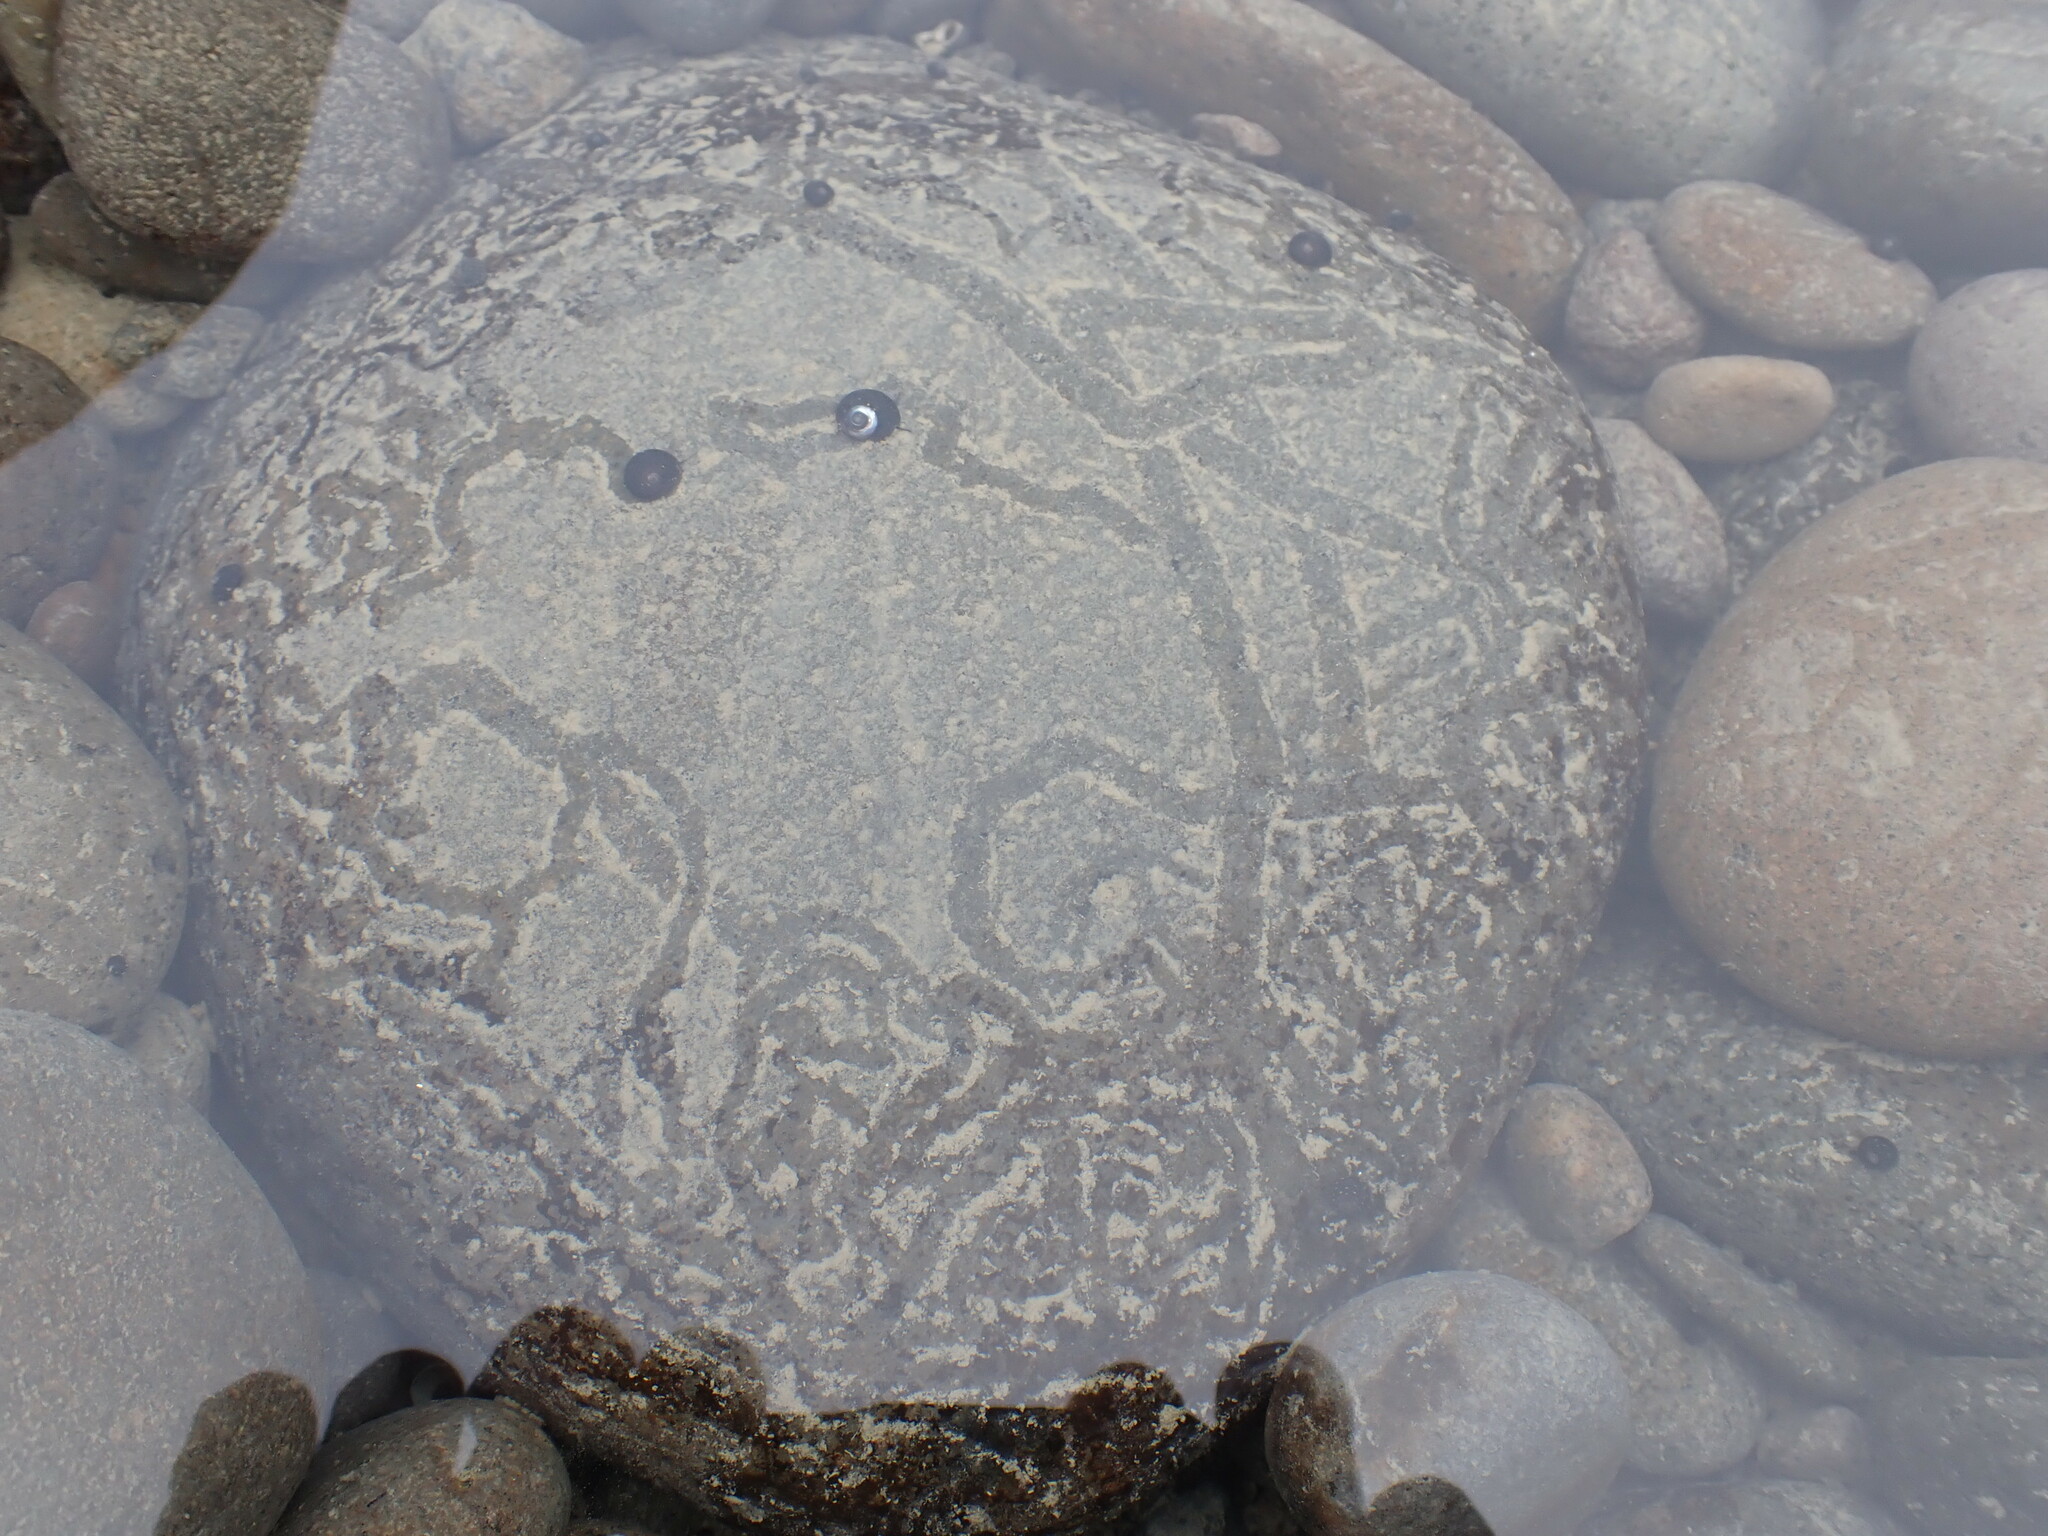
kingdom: Animalia
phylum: Mollusca
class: Gastropoda
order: Trochida
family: Trochidae
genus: Diloma
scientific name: Diloma aridum
